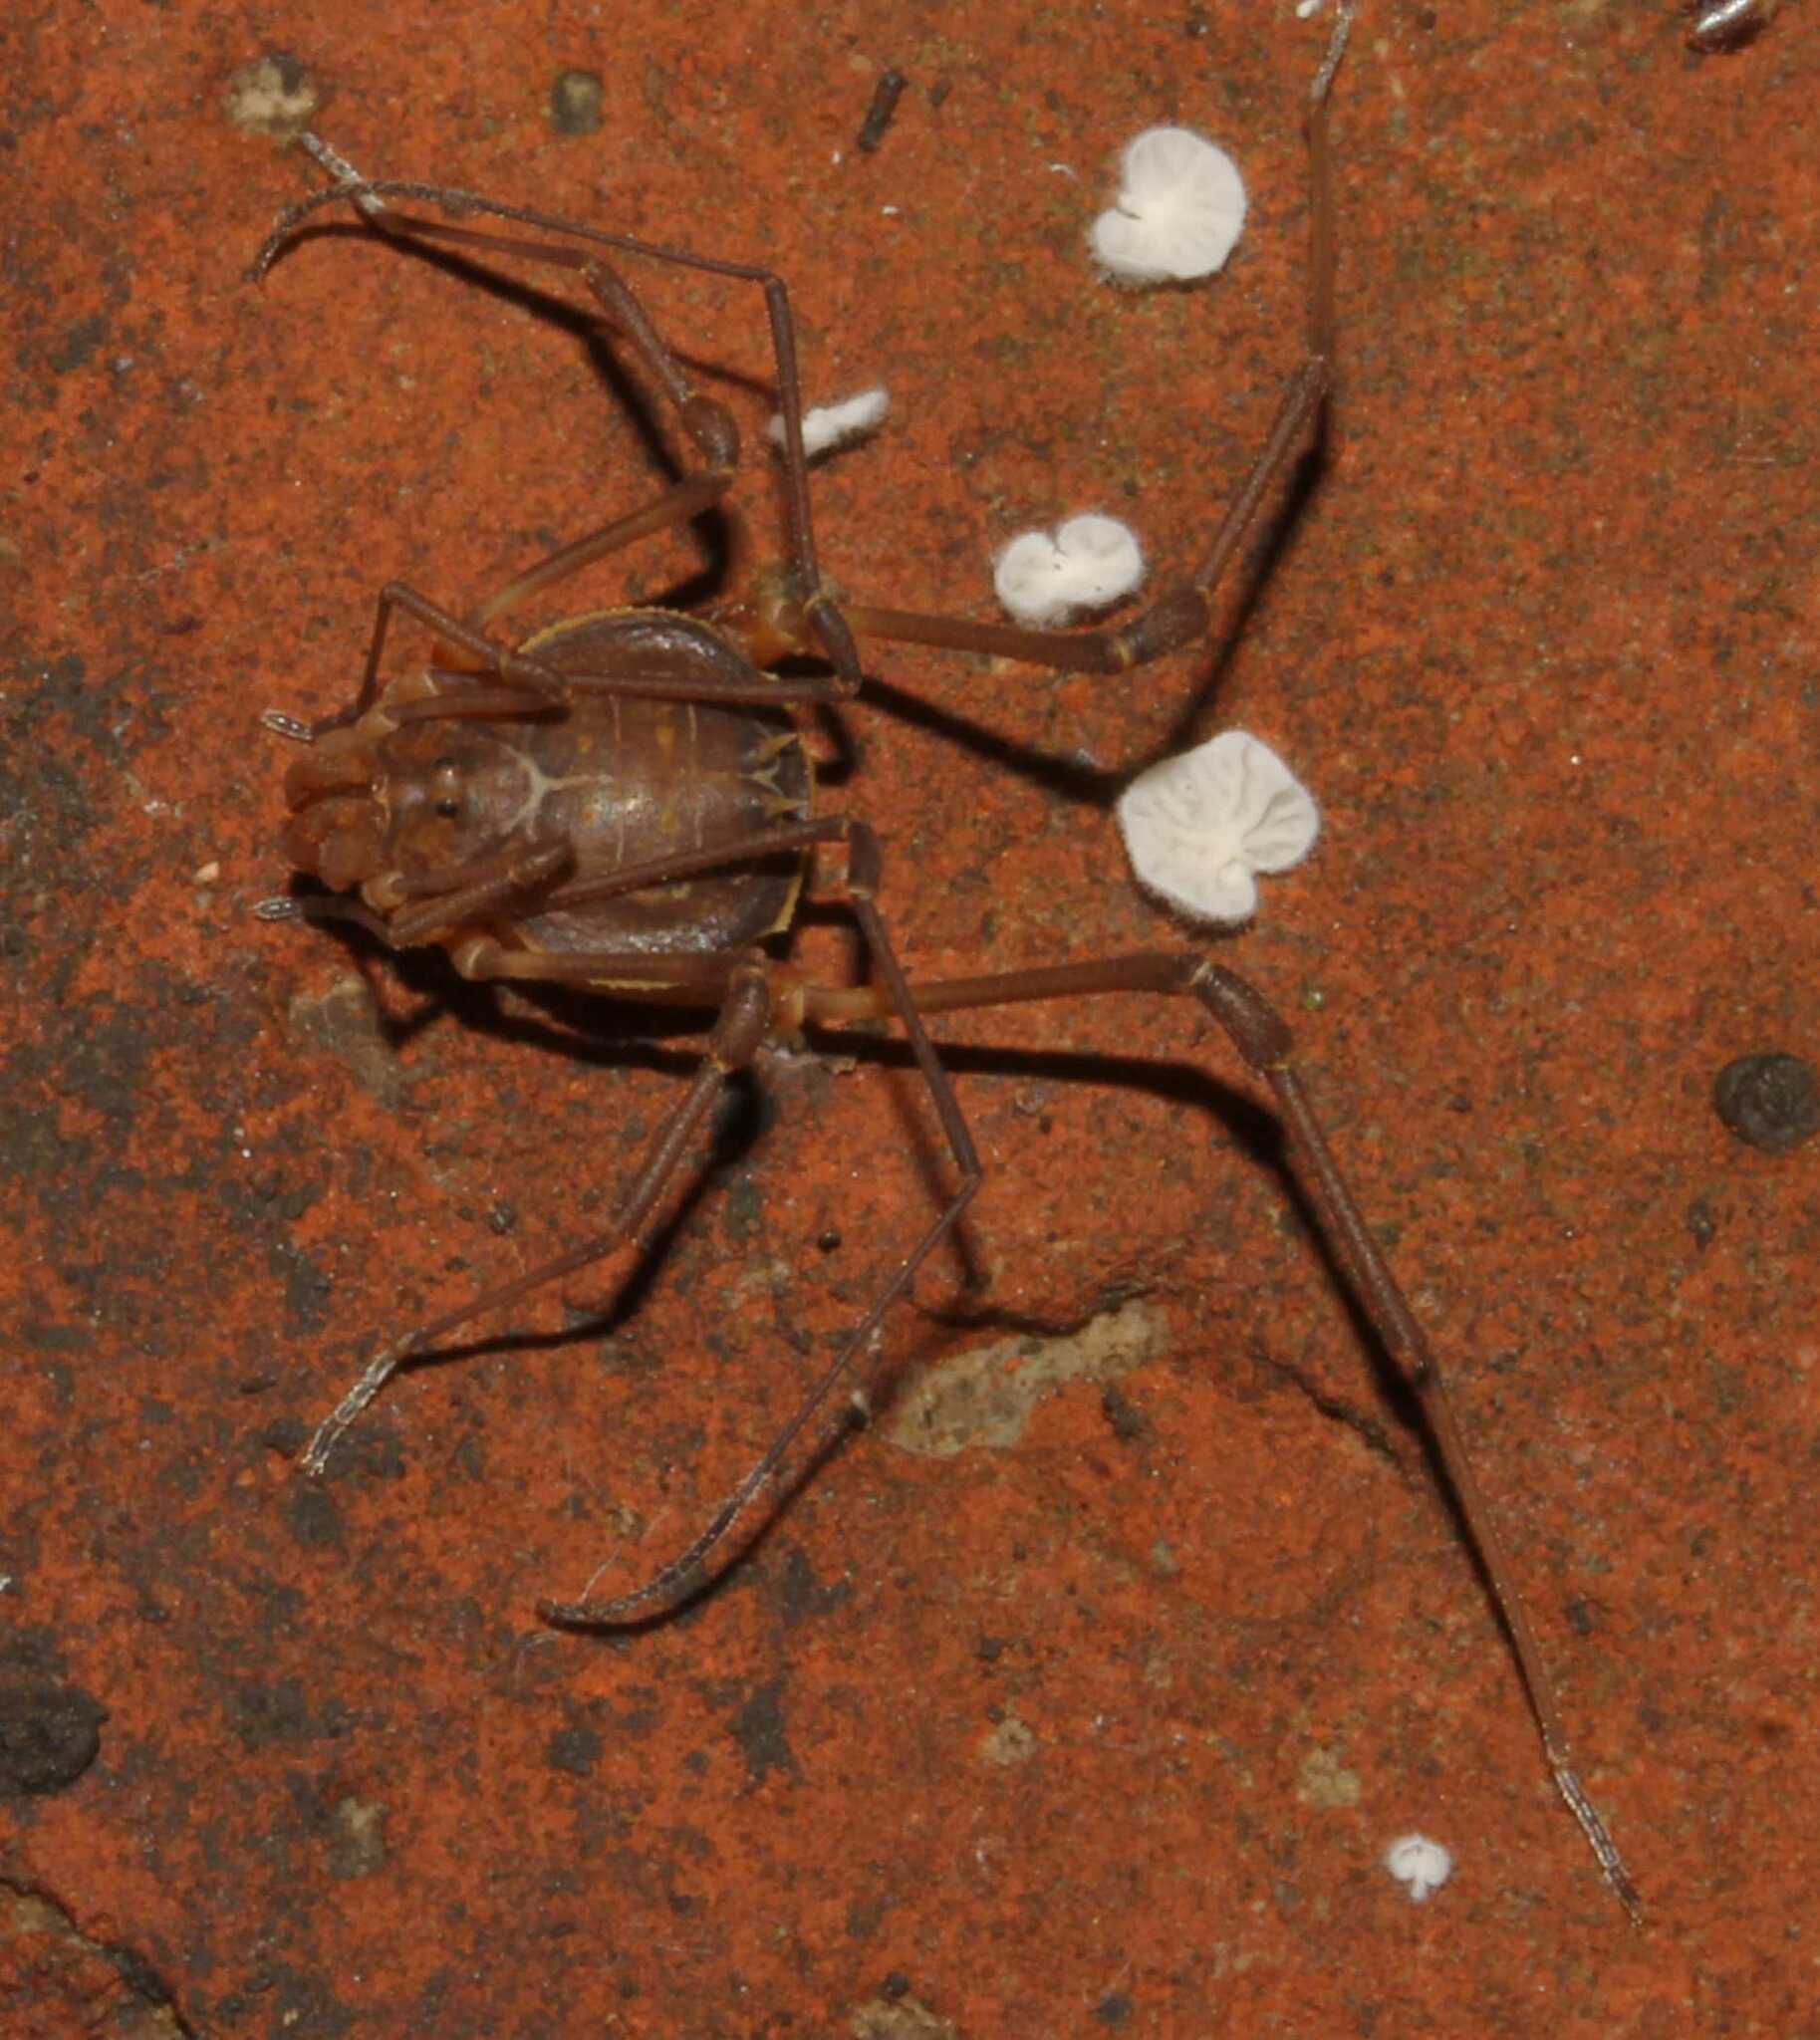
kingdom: Animalia
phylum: Arthropoda
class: Arachnida
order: Opiliones
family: Cosmetidae
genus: Cynorta
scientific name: Cynorta
